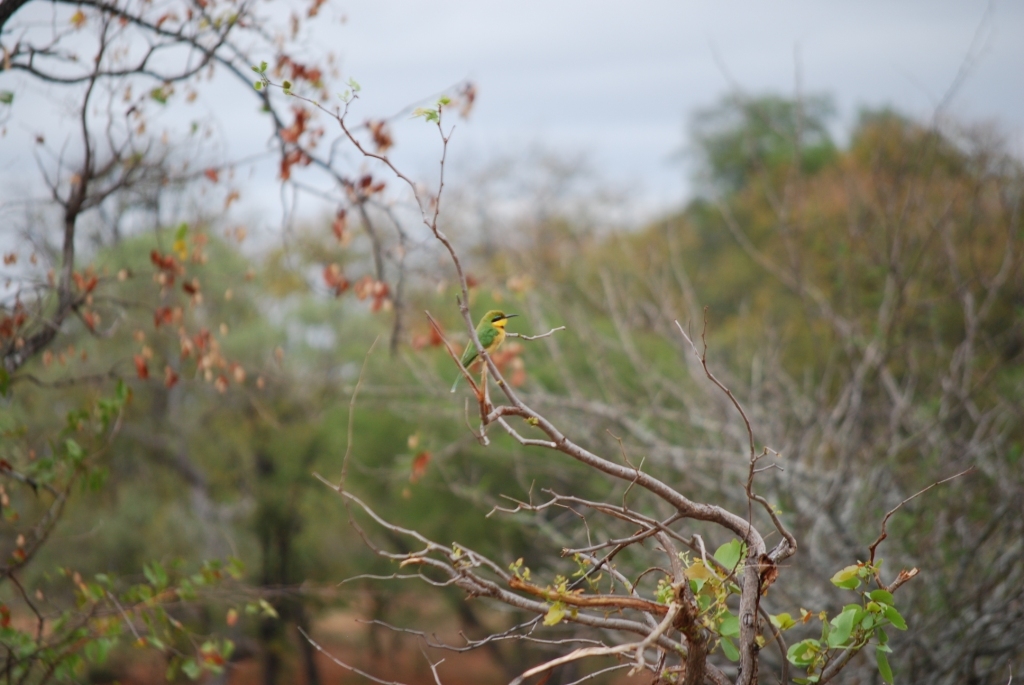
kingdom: Animalia
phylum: Chordata
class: Aves
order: Coraciiformes
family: Meropidae
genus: Merops
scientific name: Merops pusillus
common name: Little bee-eater
